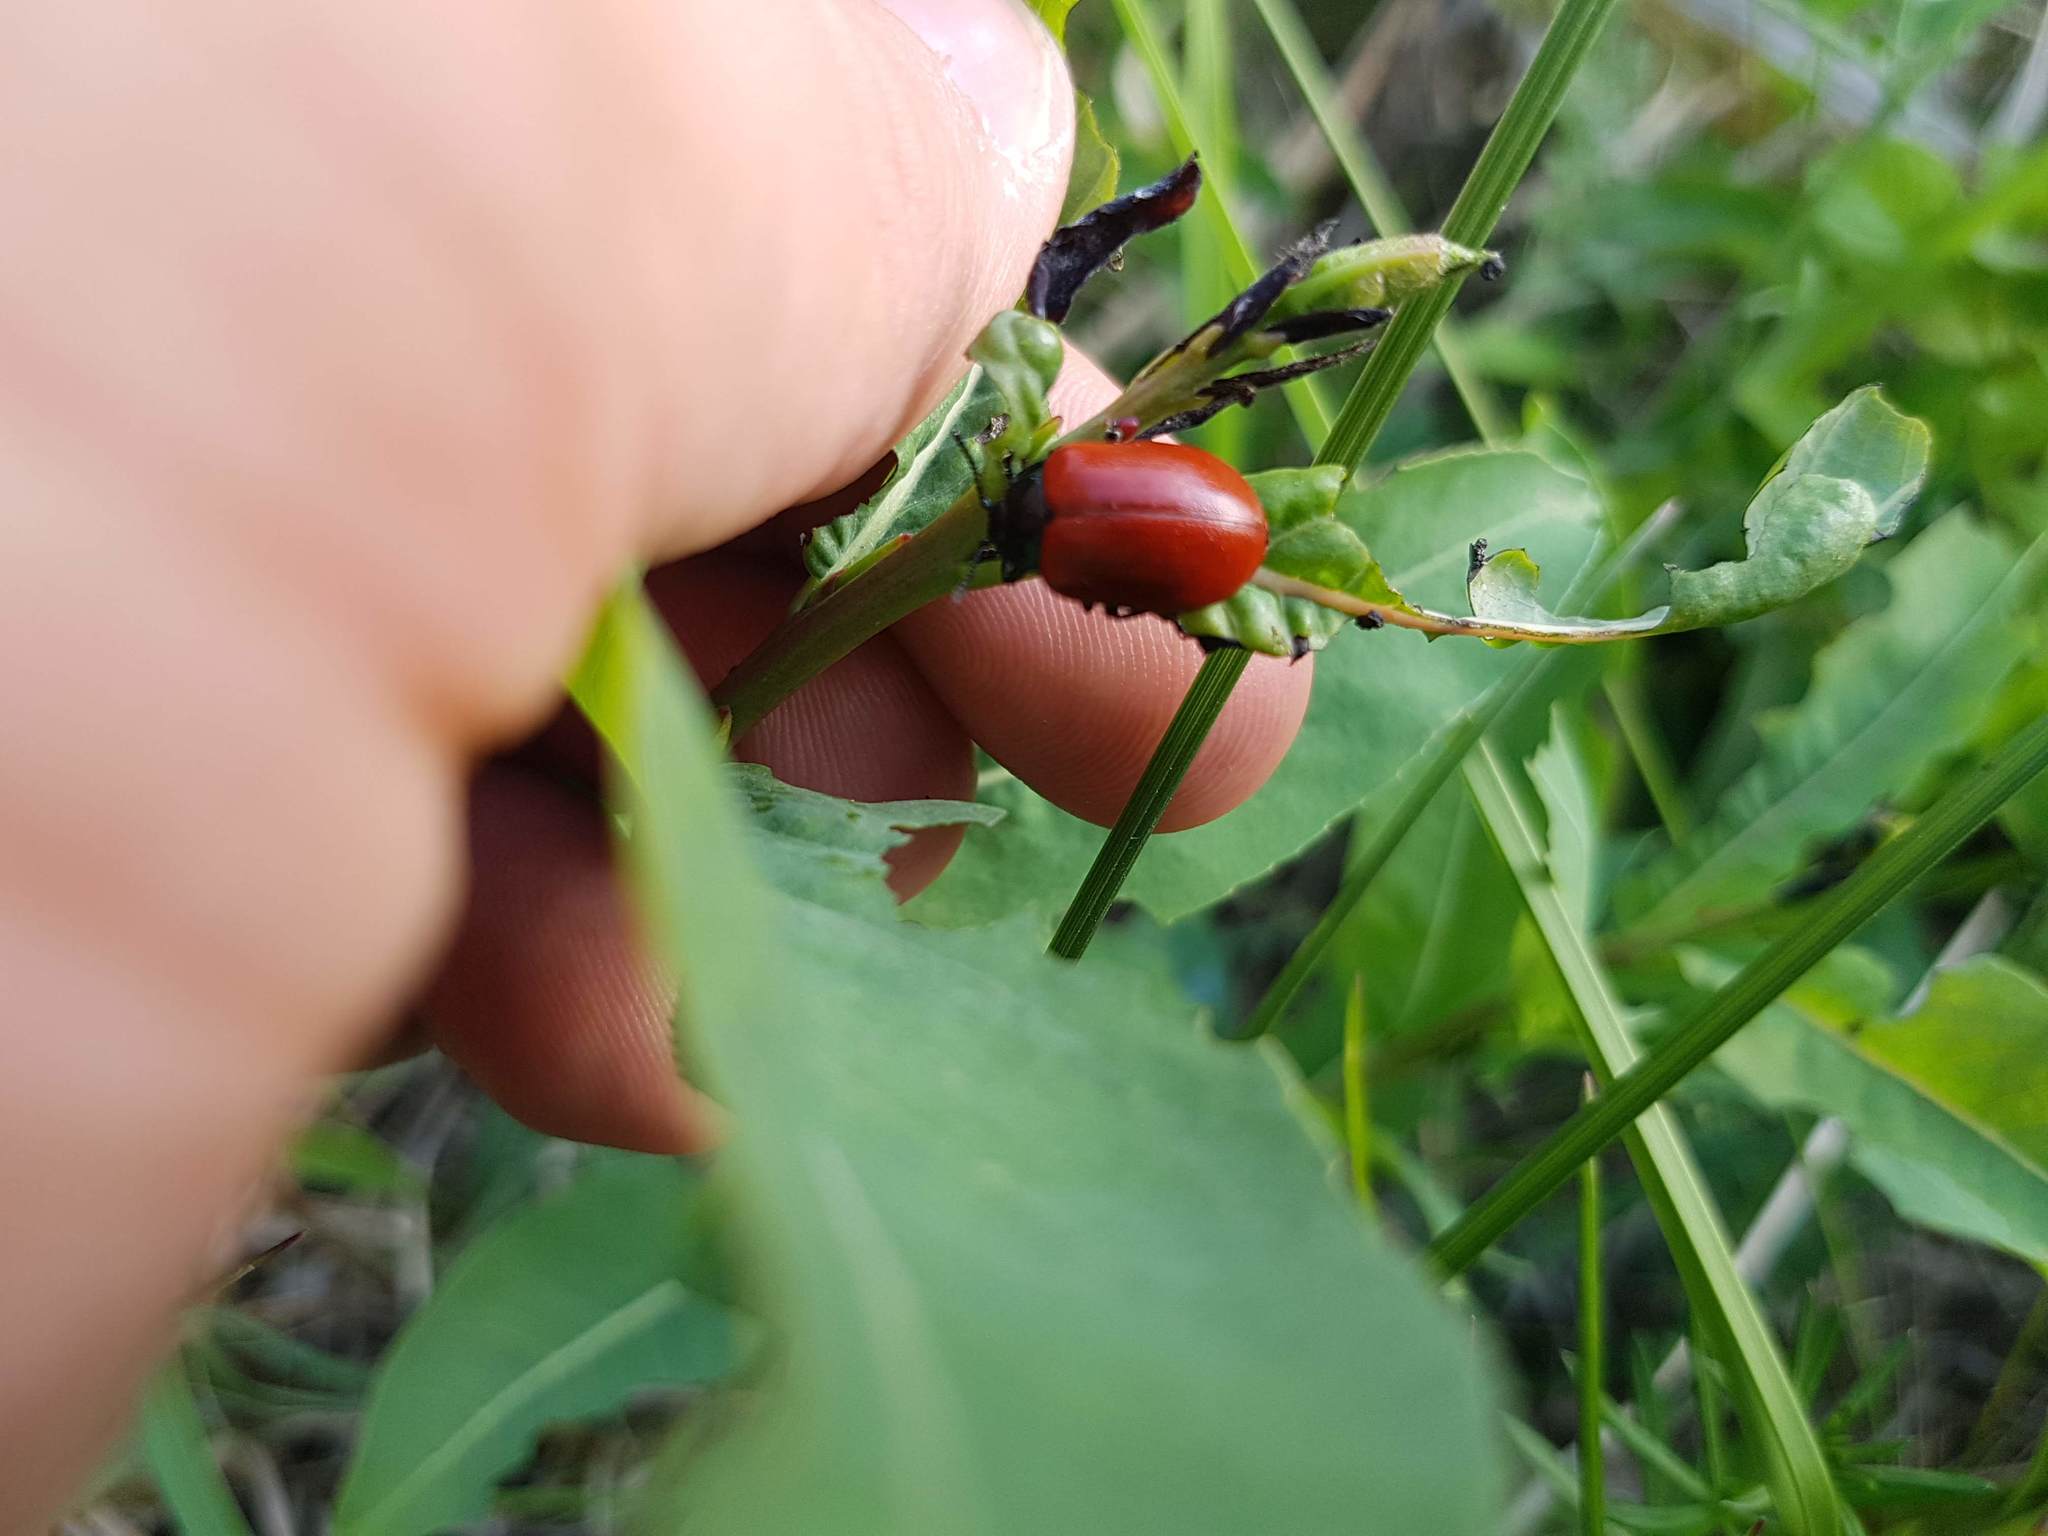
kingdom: Animalia
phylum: Arthropoda
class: Insecta
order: Coleoptera
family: Chrysomelidae
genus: Chrysomela
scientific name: Chrysomela populi
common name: Red poplar leaf beetle
